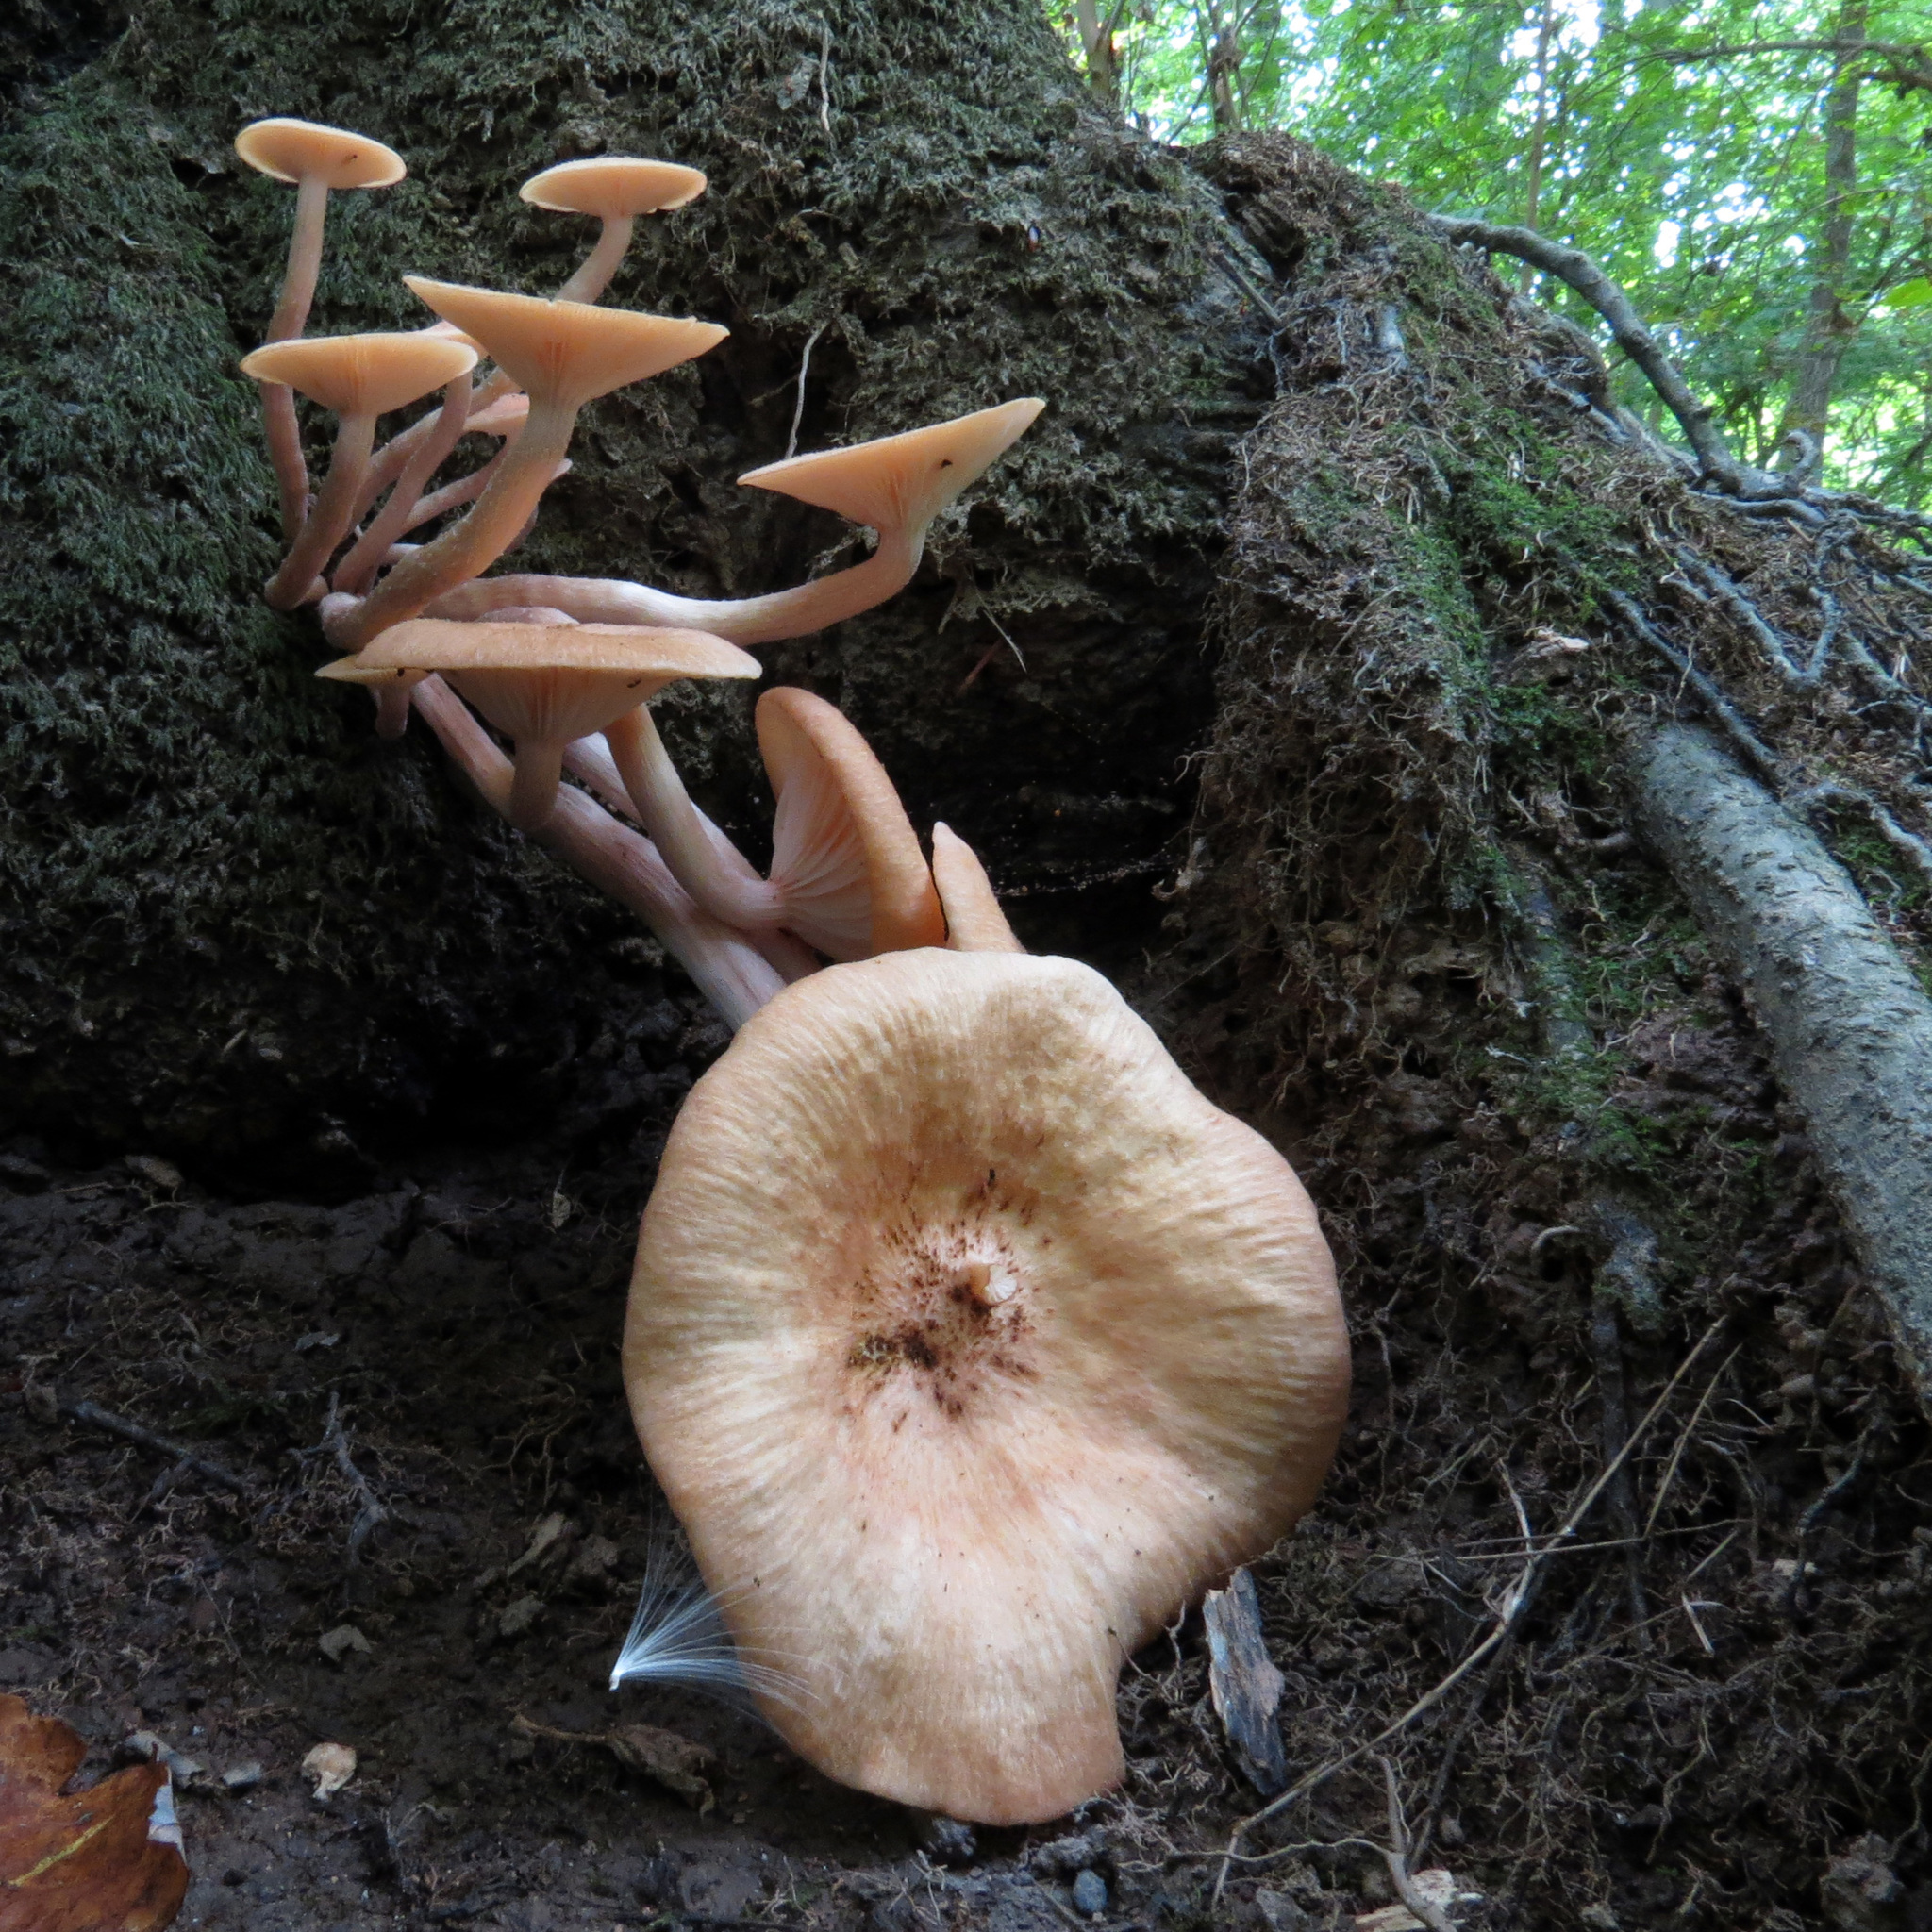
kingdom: Fungi
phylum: Basidiomycota
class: Agaricomycetes
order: Agaricales
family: Physalacriaceae
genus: Desarmillaria
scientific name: Desarmillaria caespitosa
